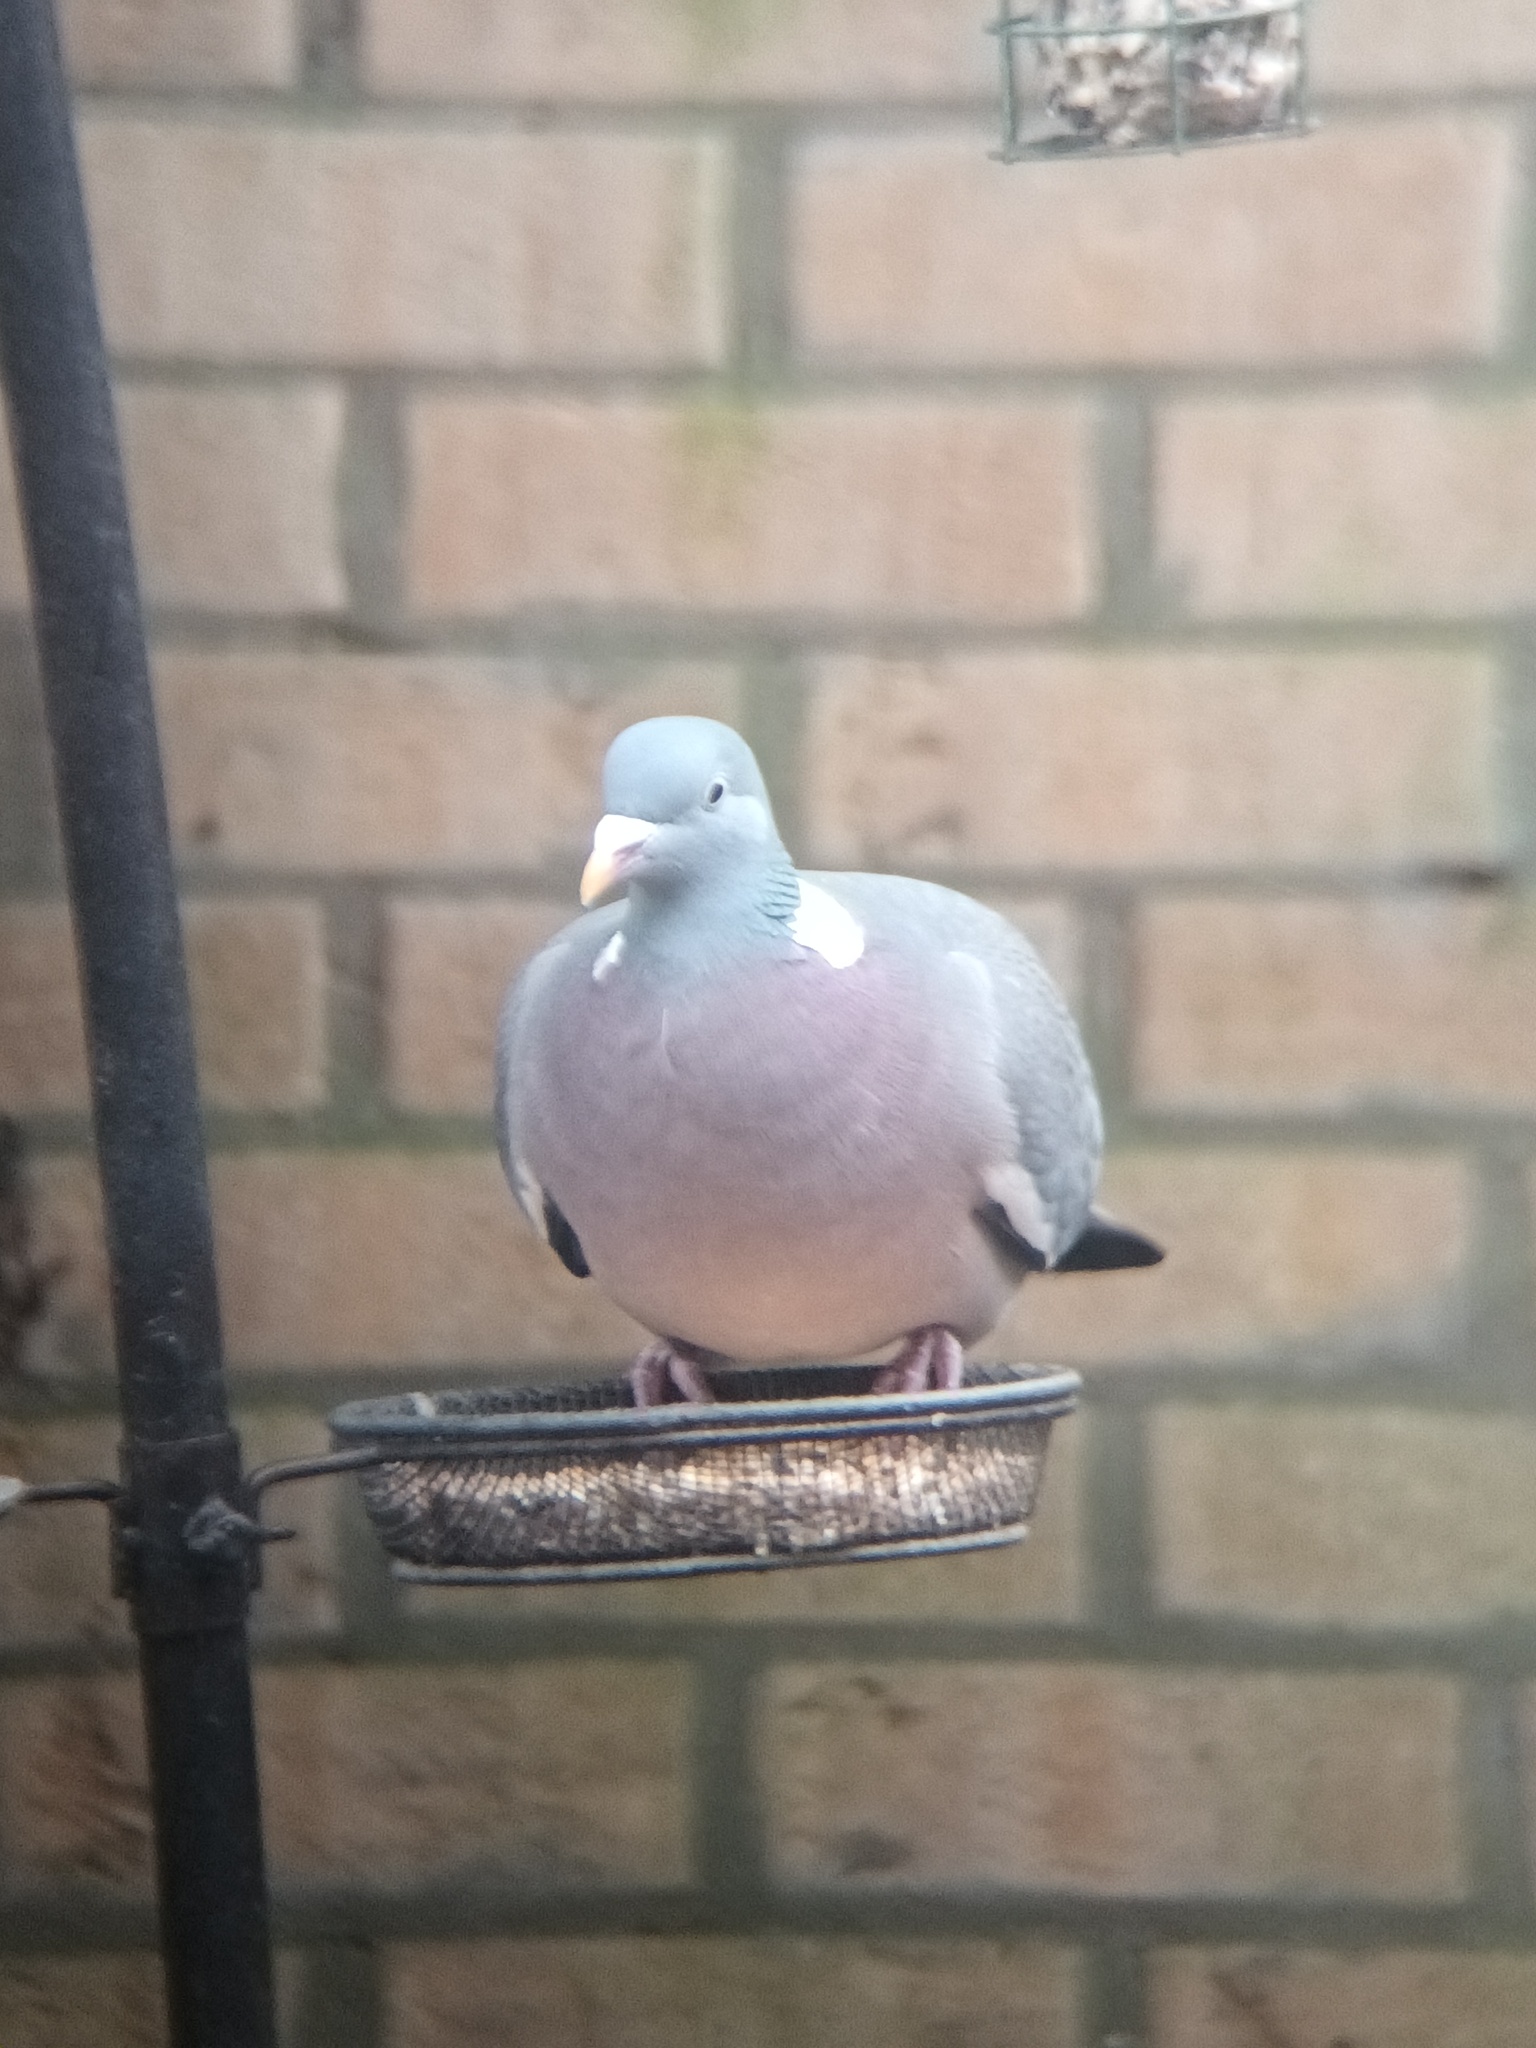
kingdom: Animalia
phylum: Chordata
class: Aves
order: Columbiformes
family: Columbidae
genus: Columba
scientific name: Columba palumbus
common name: Common wood pigeon
